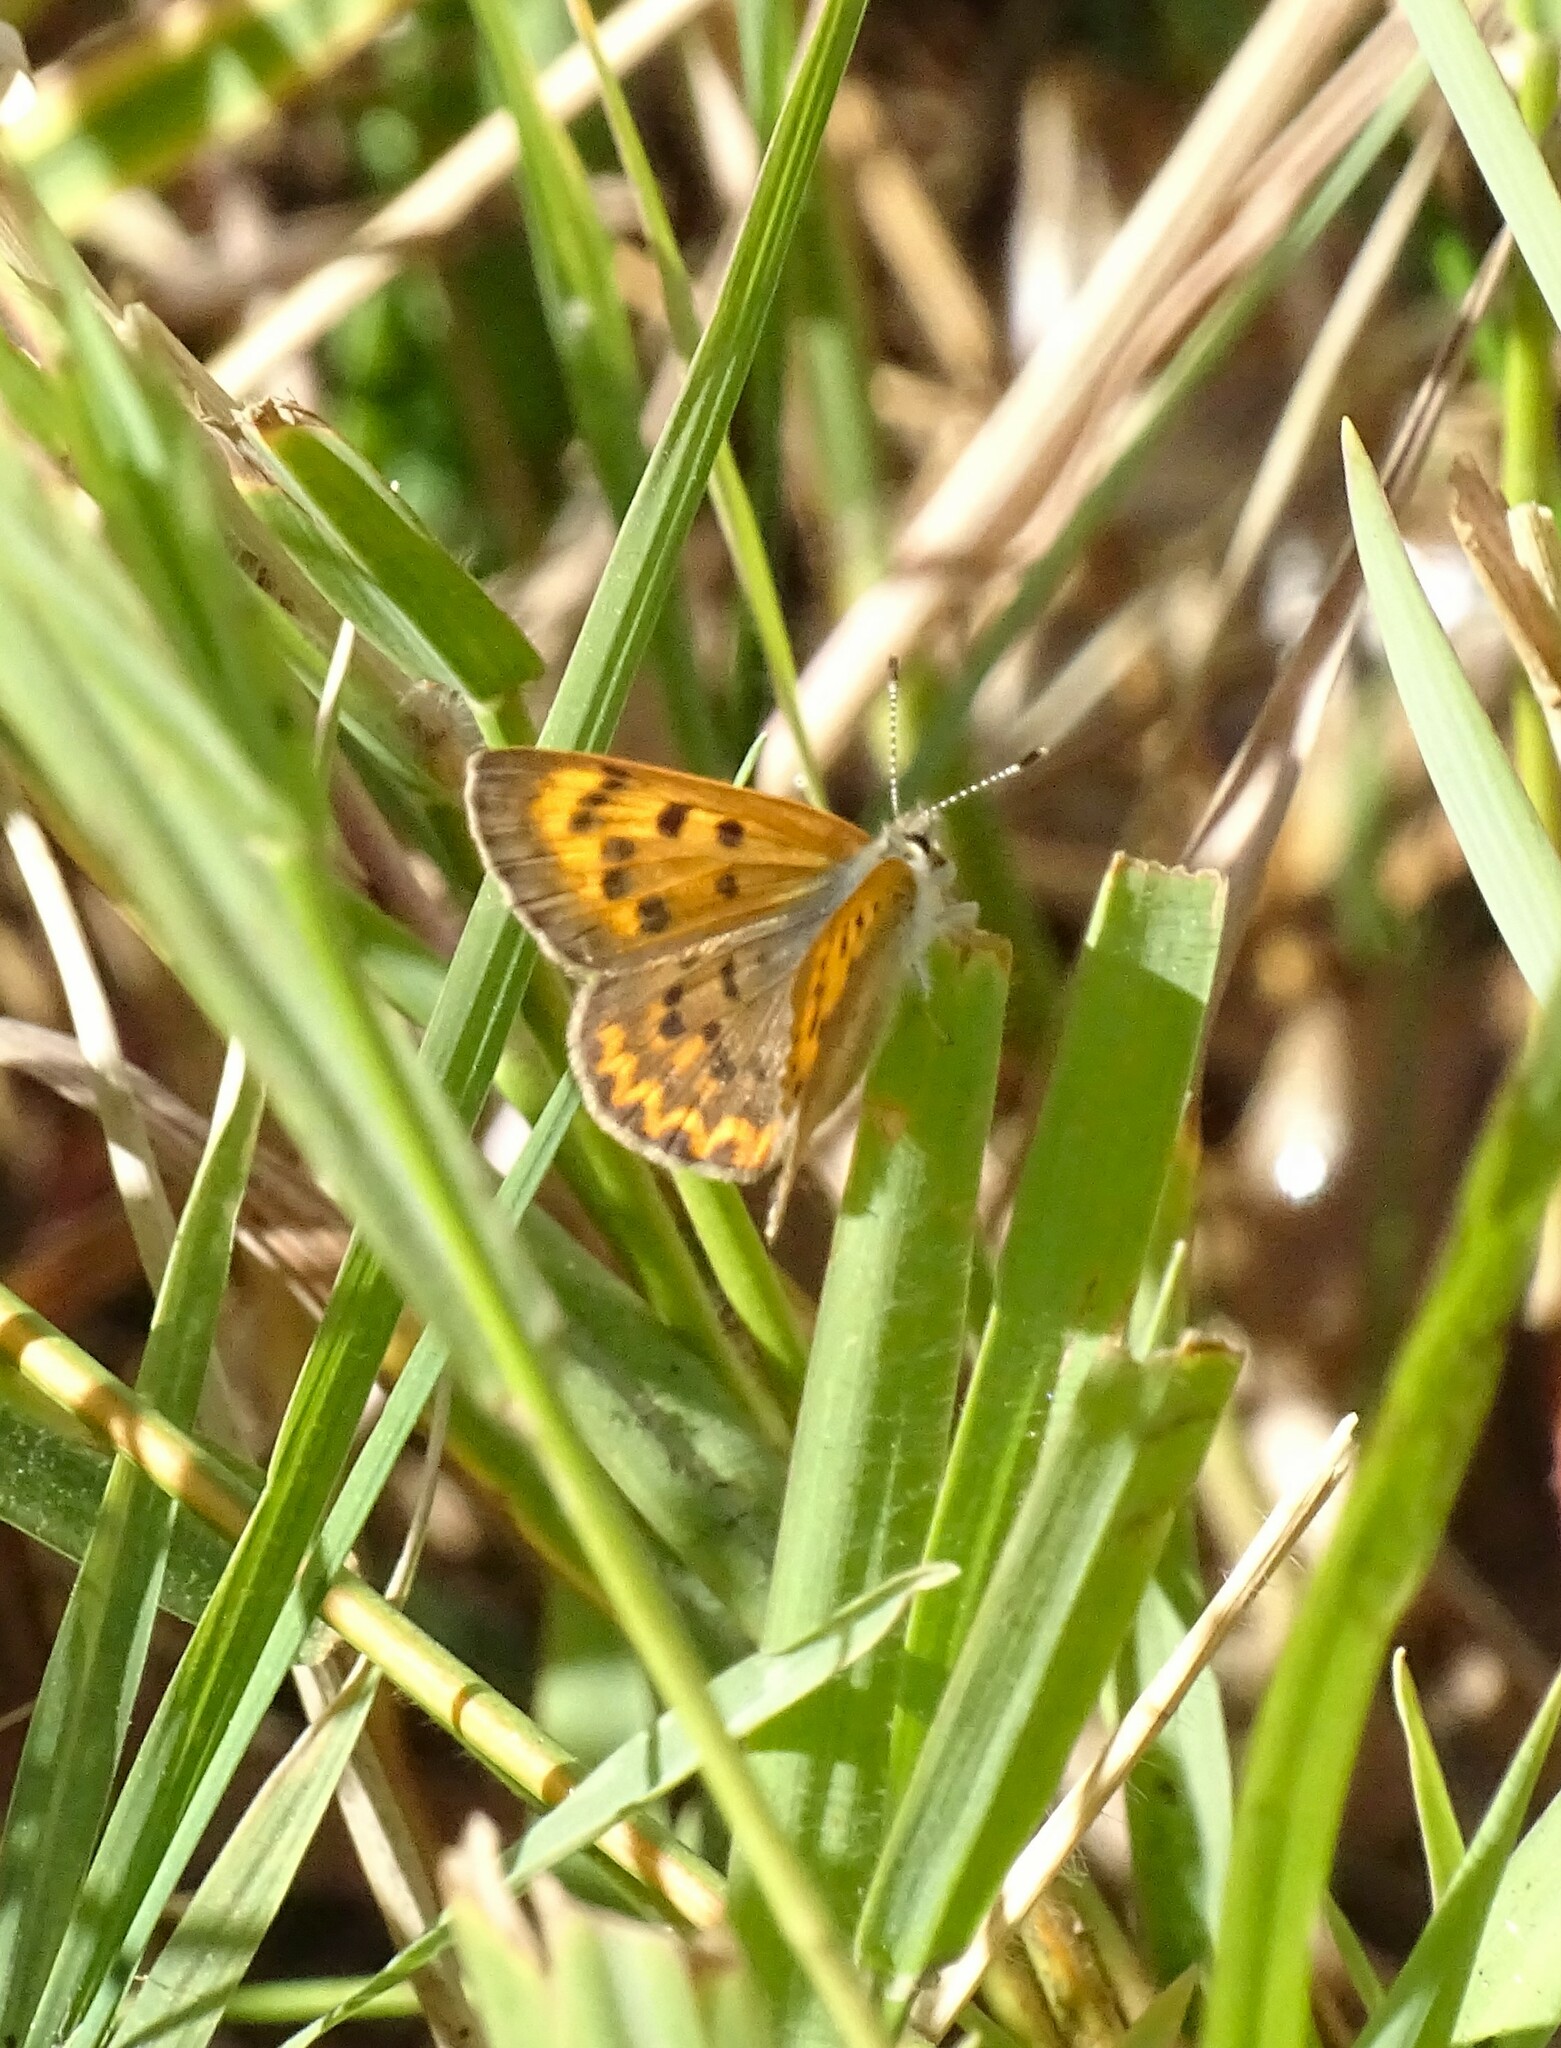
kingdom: Animalia
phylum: Arthropoda
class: Insecta
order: Lepidoptera
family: Lycaenidae
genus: Tharsalea
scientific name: Tharsalea helloides
